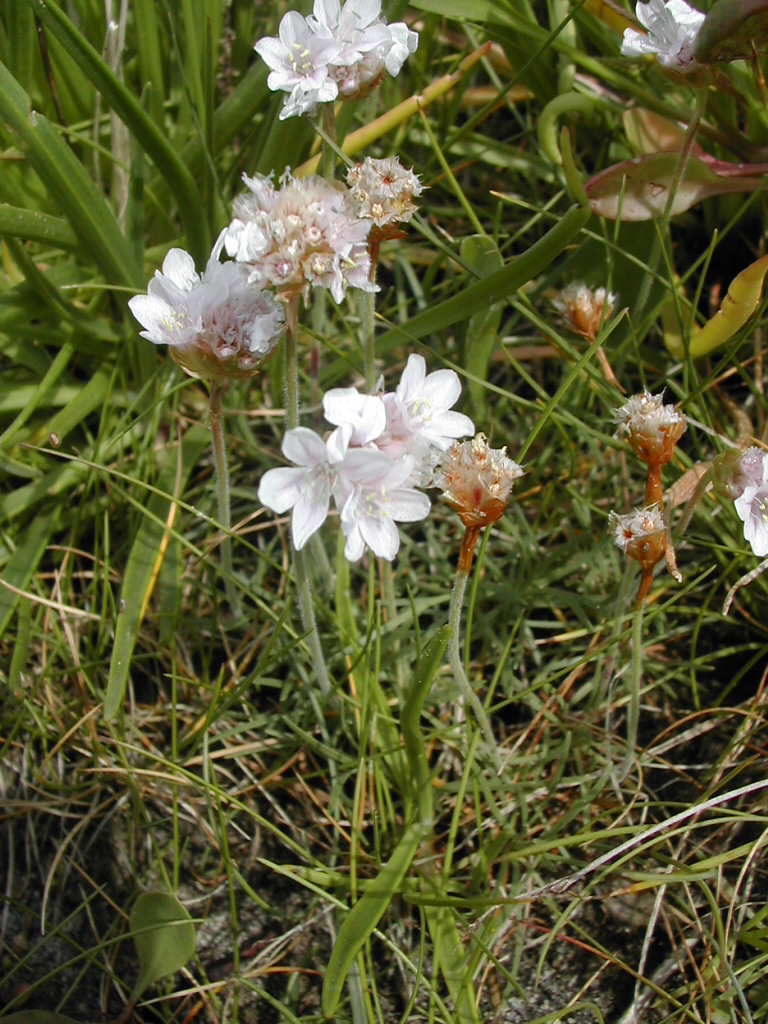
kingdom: Plantae
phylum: Tracheophyta
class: Magnoliopsida
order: Caryophyllales
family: Plumbaginaceae
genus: Armeria
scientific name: Armeria maritima
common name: Thrift
